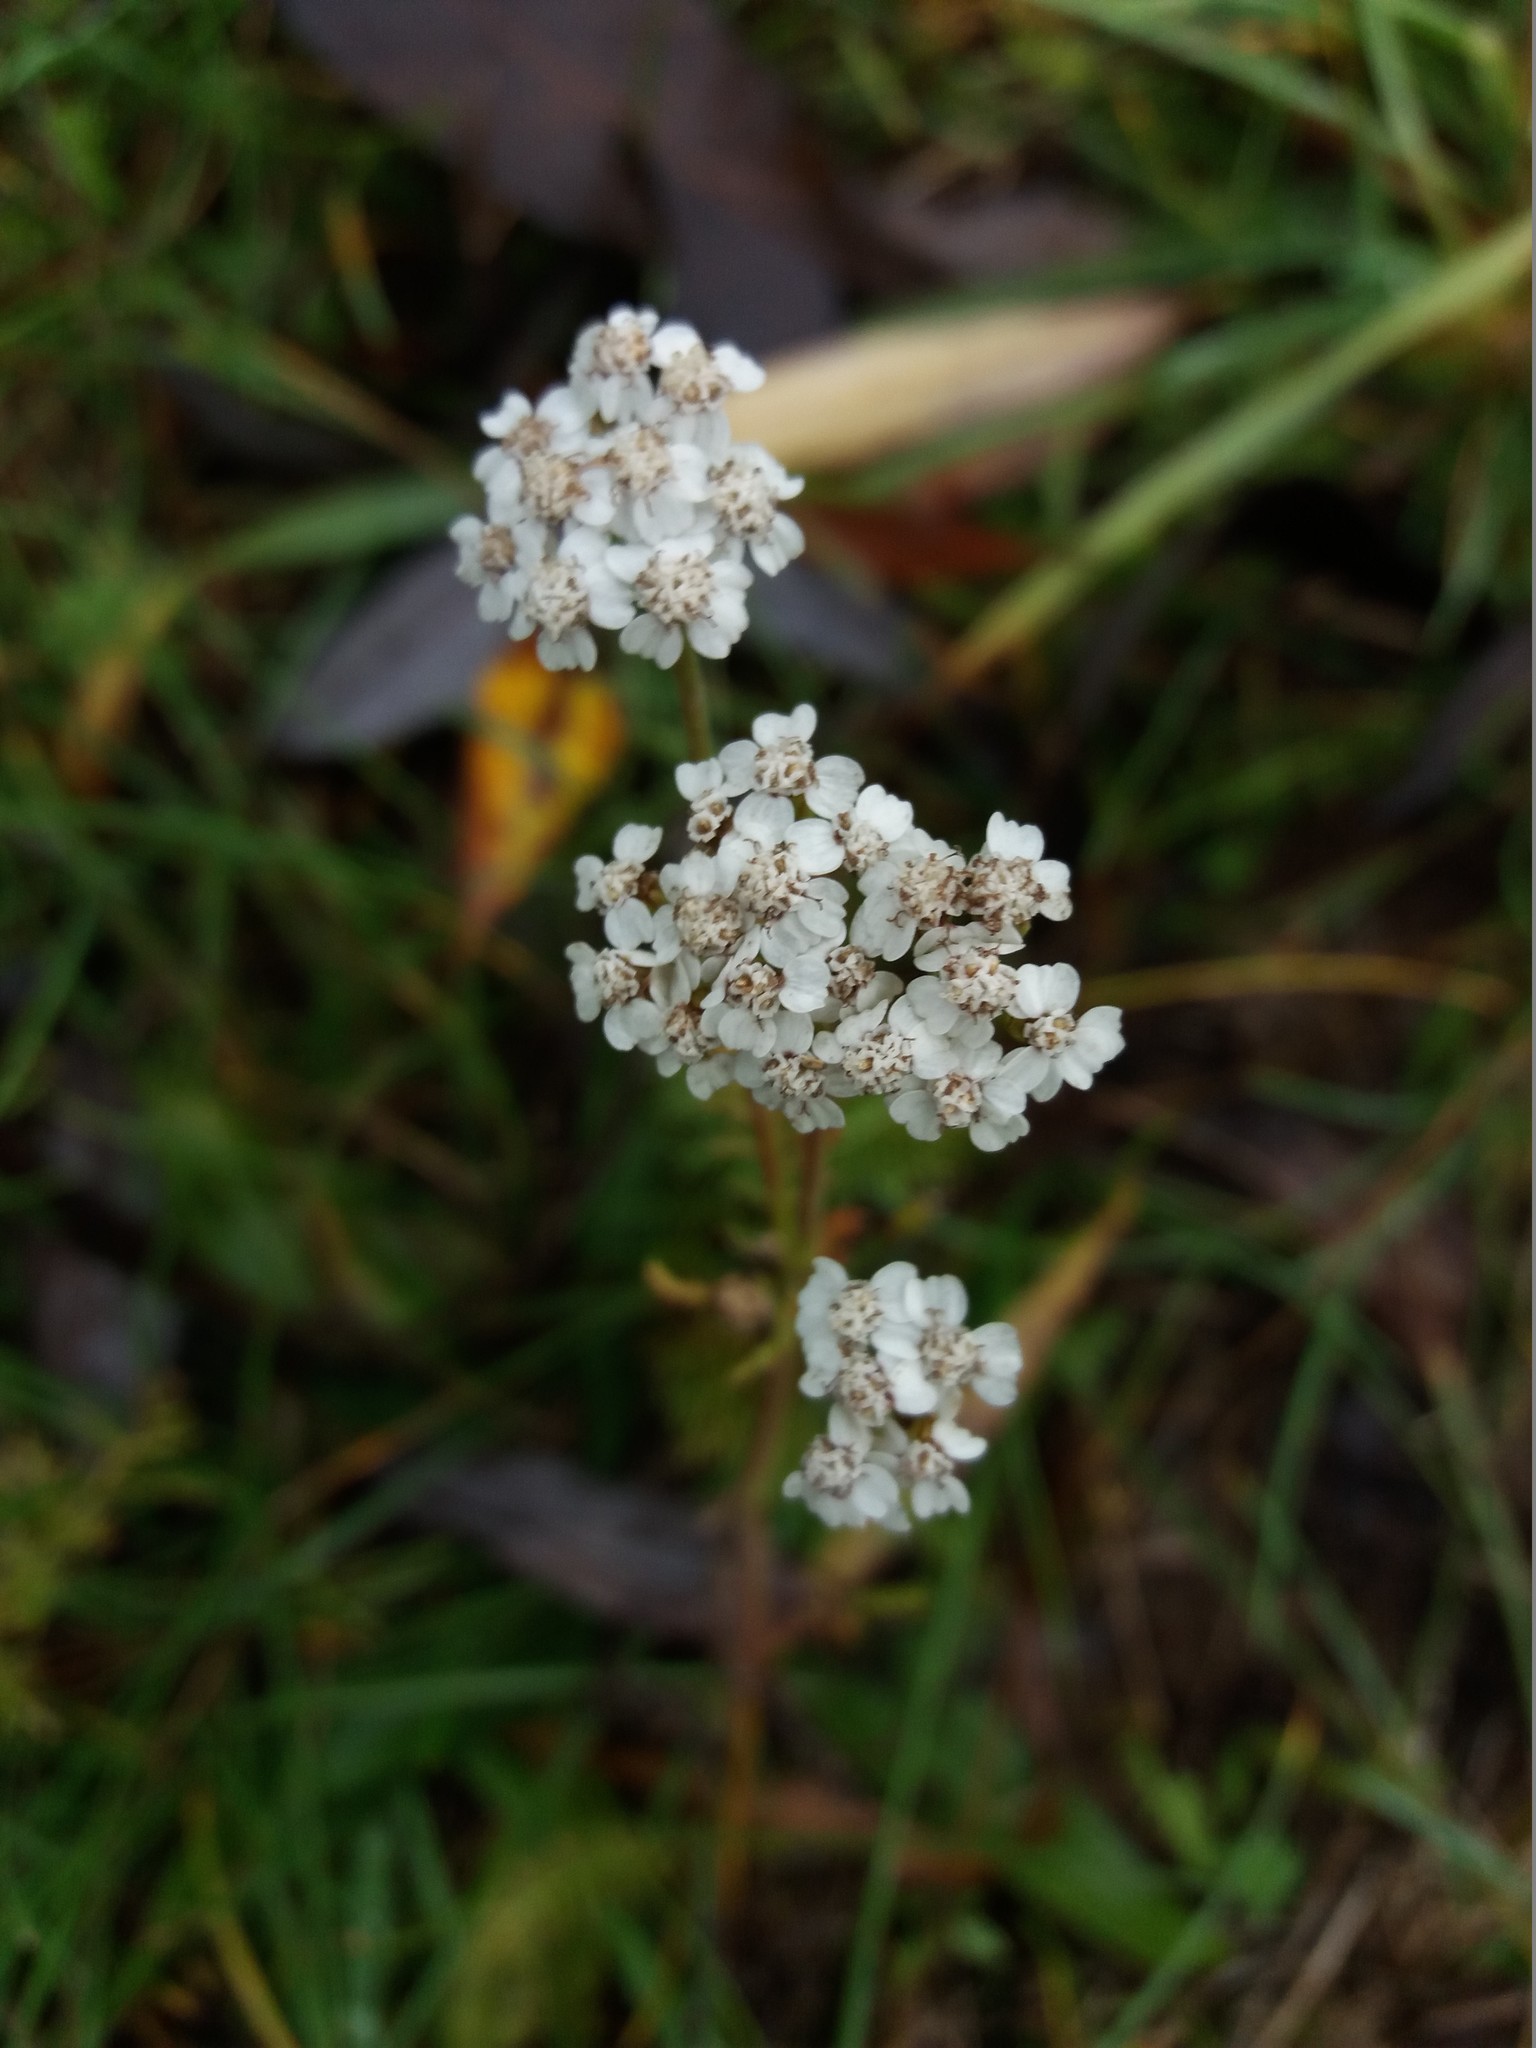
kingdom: Plantae
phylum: Tracheophyta
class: Magnoliopsida
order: Asterales
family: Asteraceae
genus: Achillea
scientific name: Achillea millefolium
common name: Yarrow
